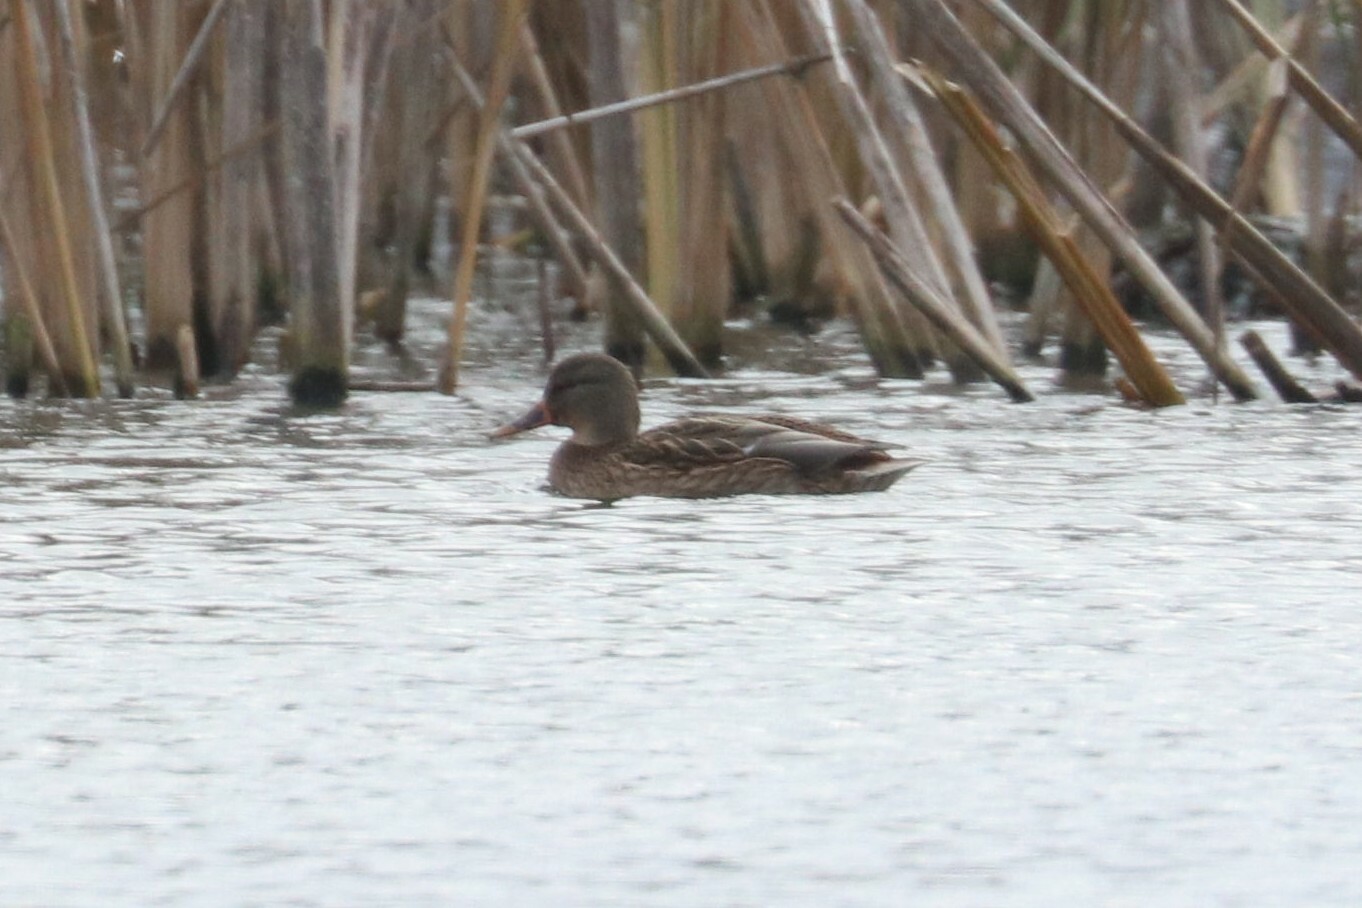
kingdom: Animalia
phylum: Chordata
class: Aves
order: Anseriformes
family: Anatidae
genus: Anas
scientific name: Anas platyrhynchos
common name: Mallard
